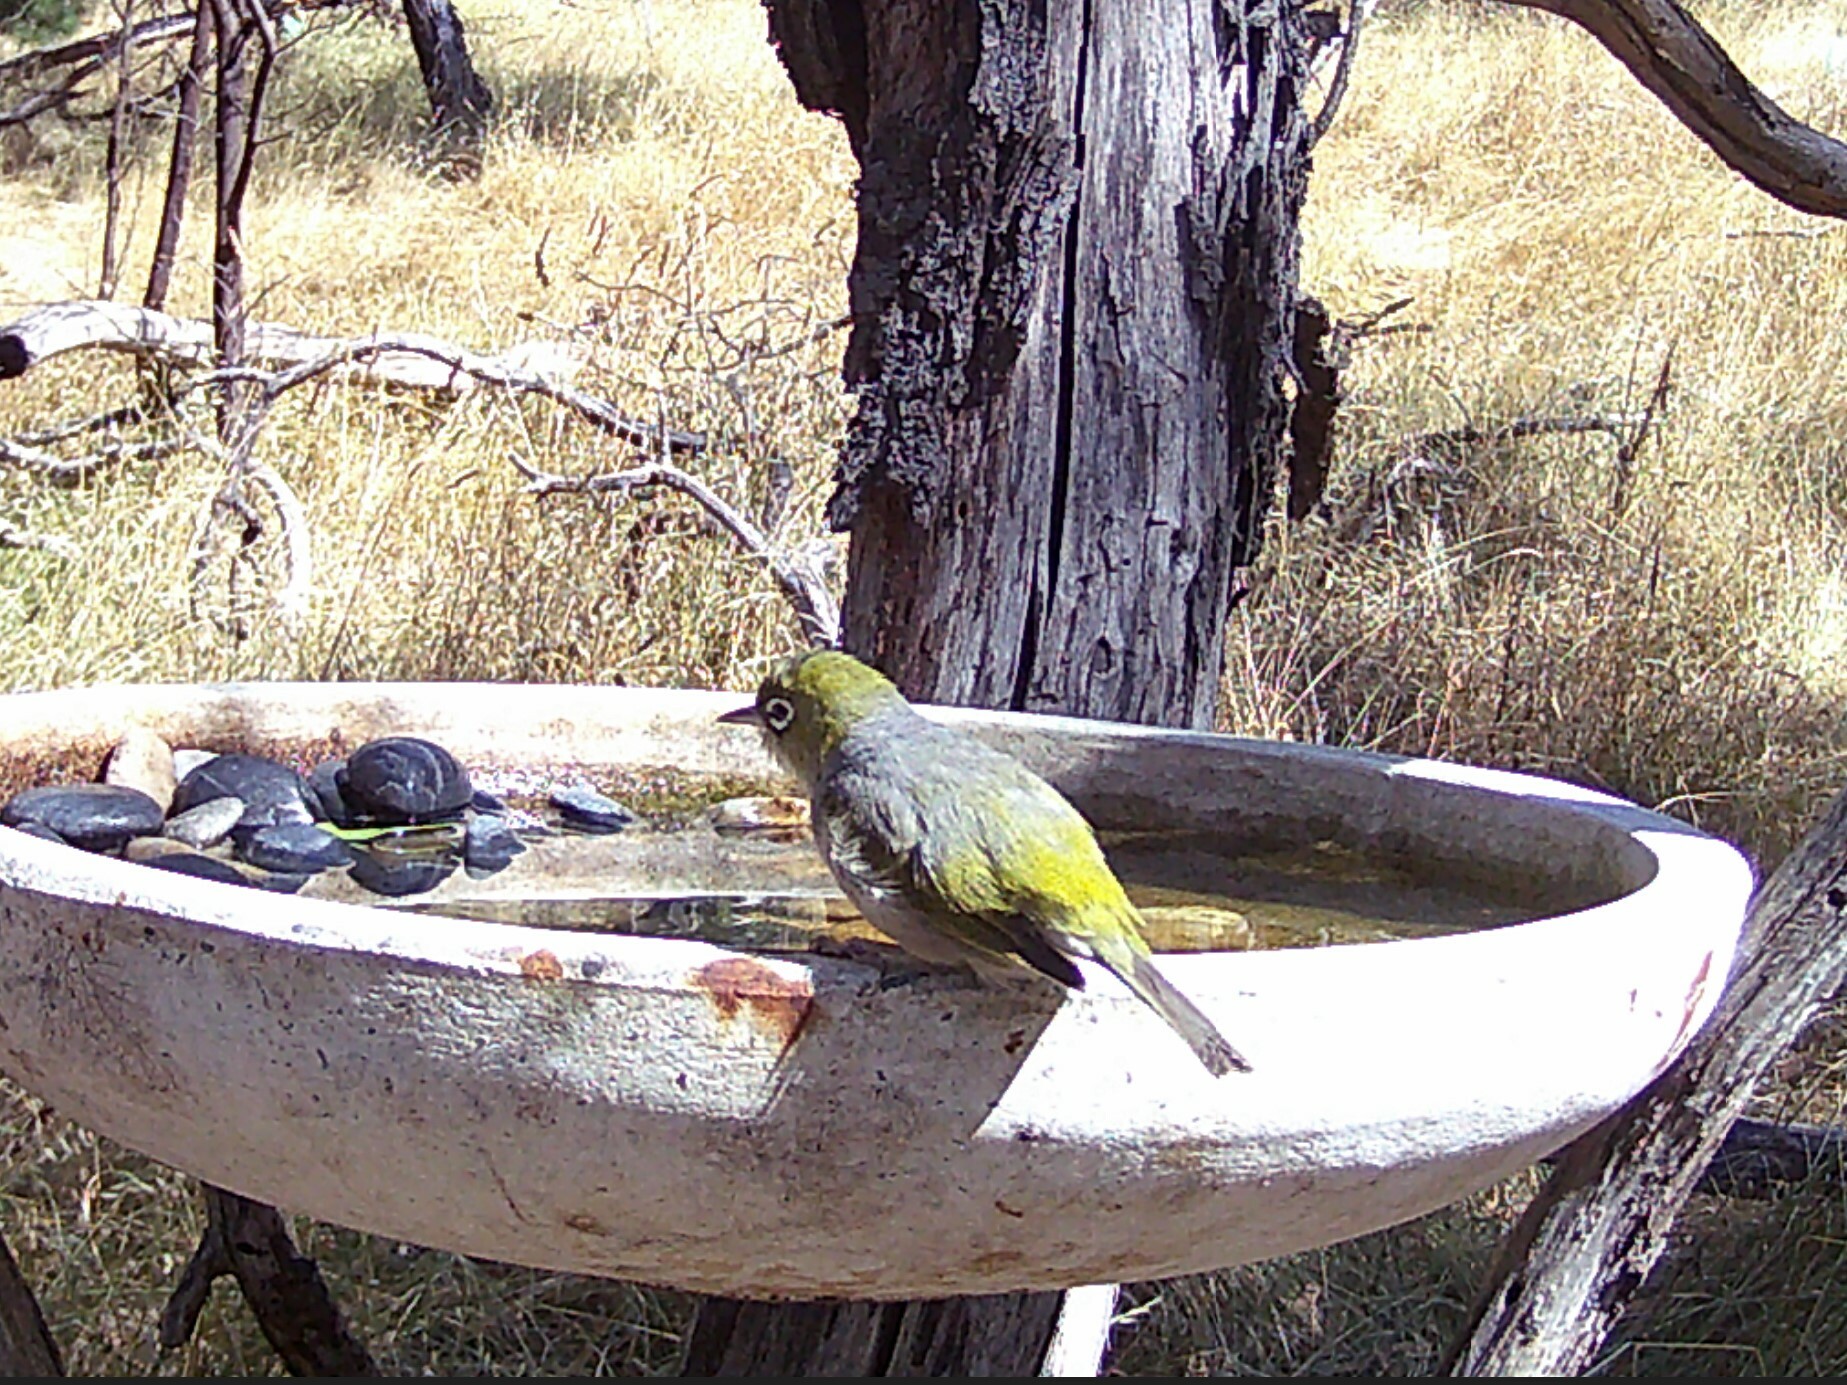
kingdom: Animalia
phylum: Chordata
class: Aves
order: Passeriformes
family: Zosteropidae
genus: Zosterops
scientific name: Zosterops lateralis
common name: Silvereye
